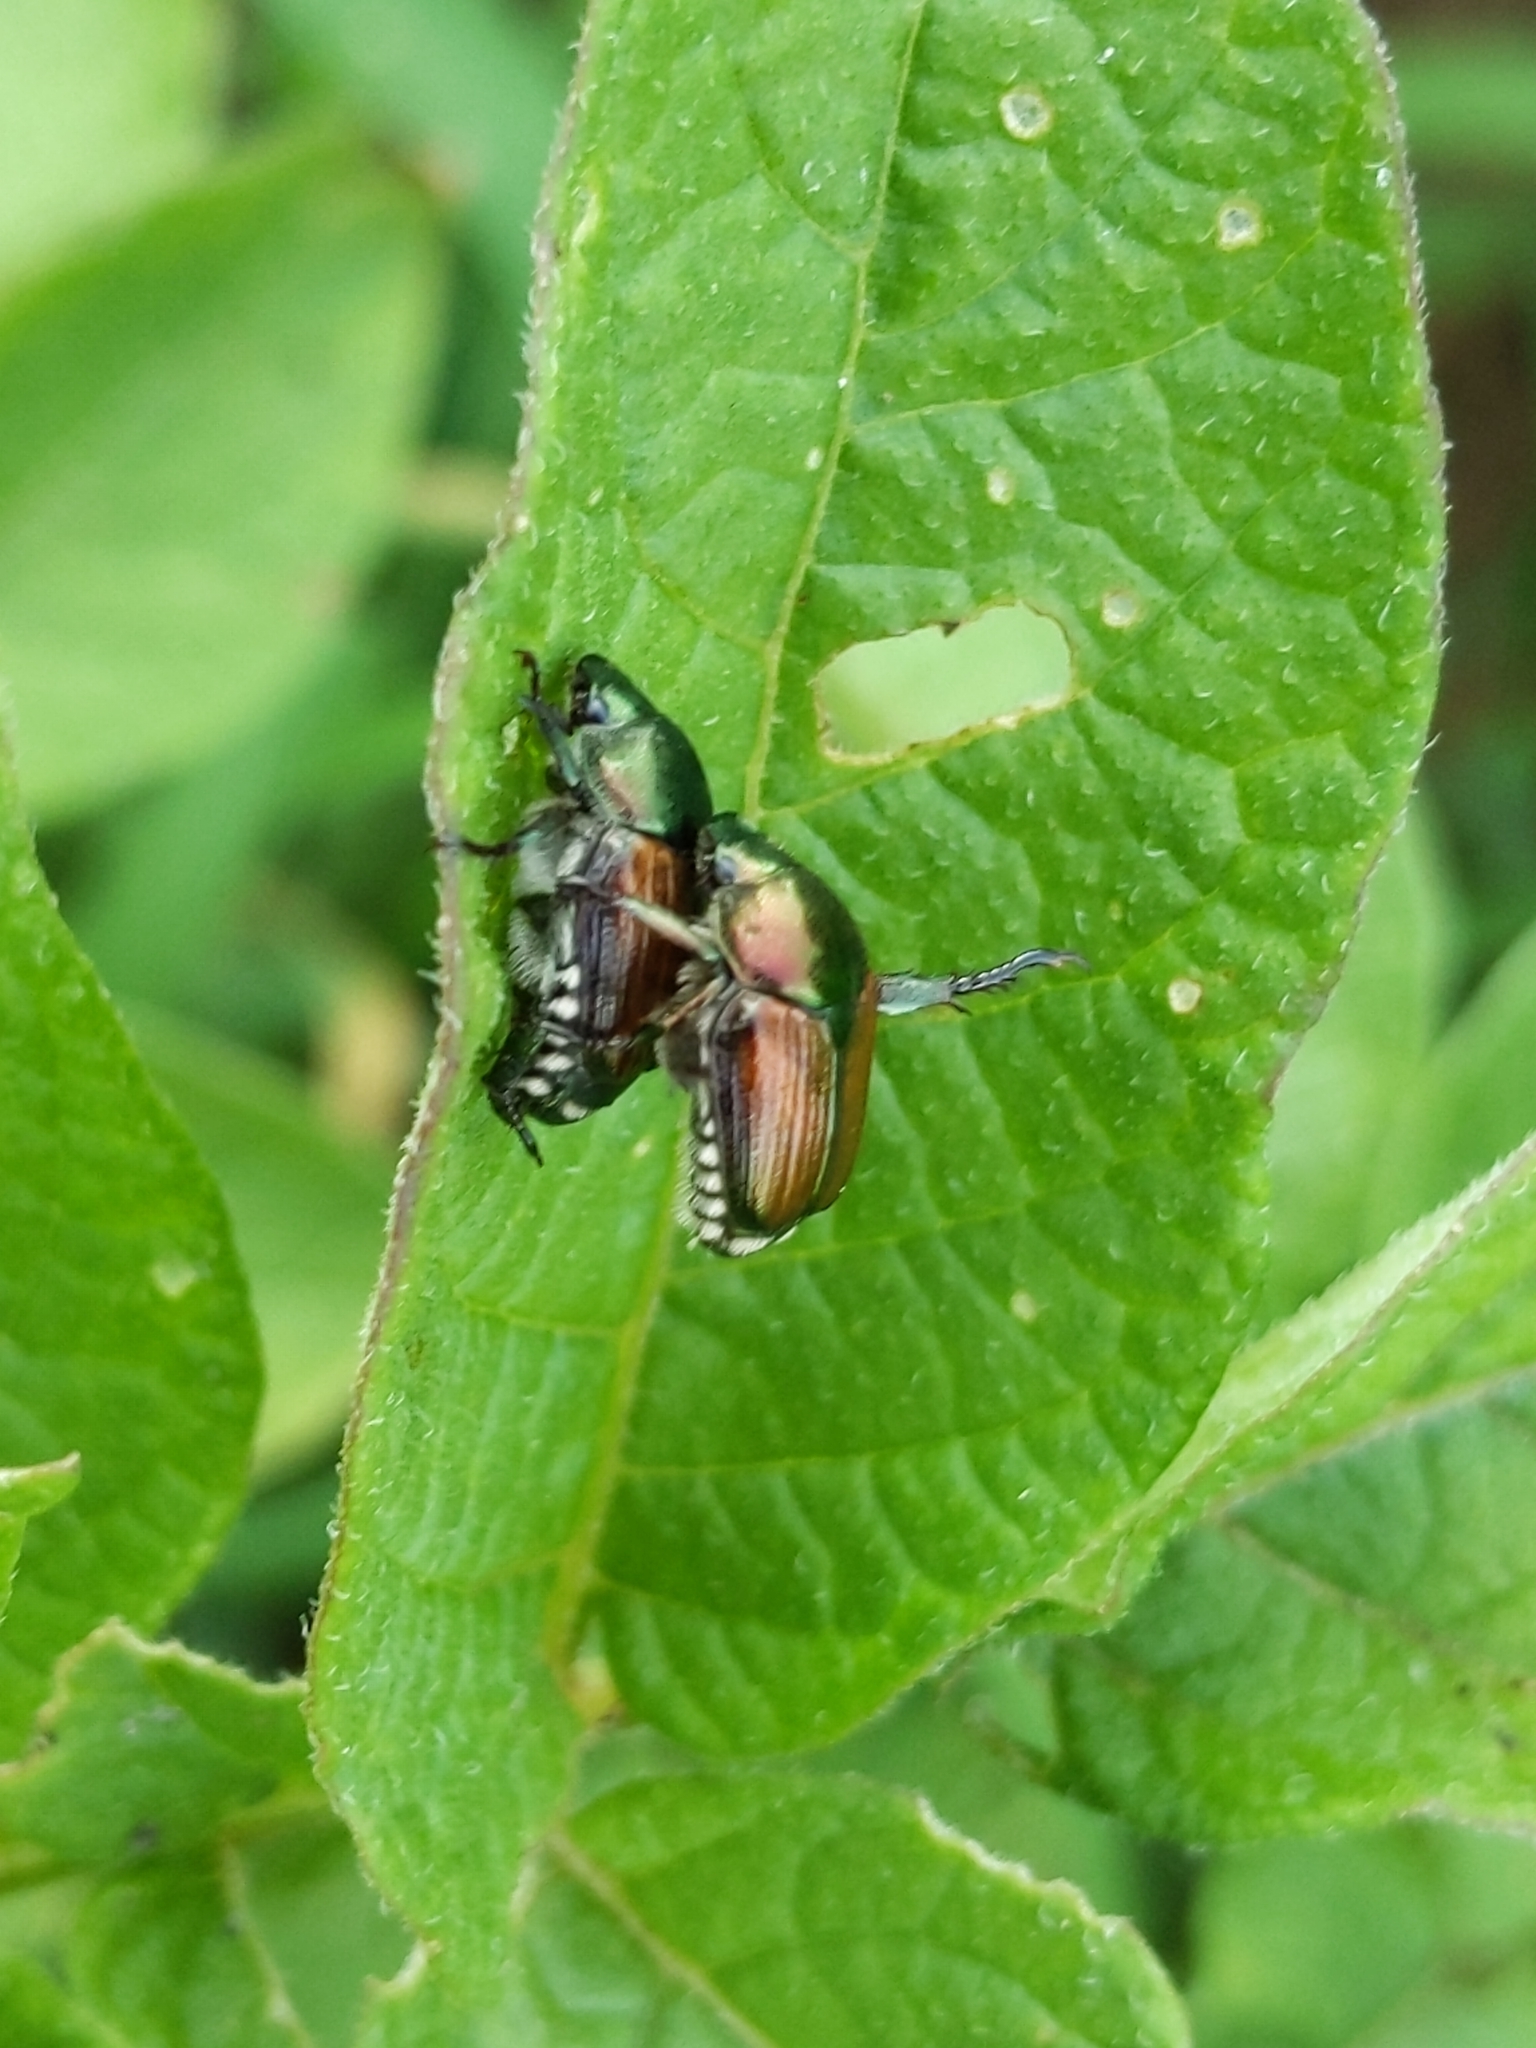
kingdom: Animalia
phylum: Arthropoda
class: Insecta
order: Coleoptera
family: Scarabaeidae
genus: Popillia
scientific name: Popillia japonica
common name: Japanese beetle
